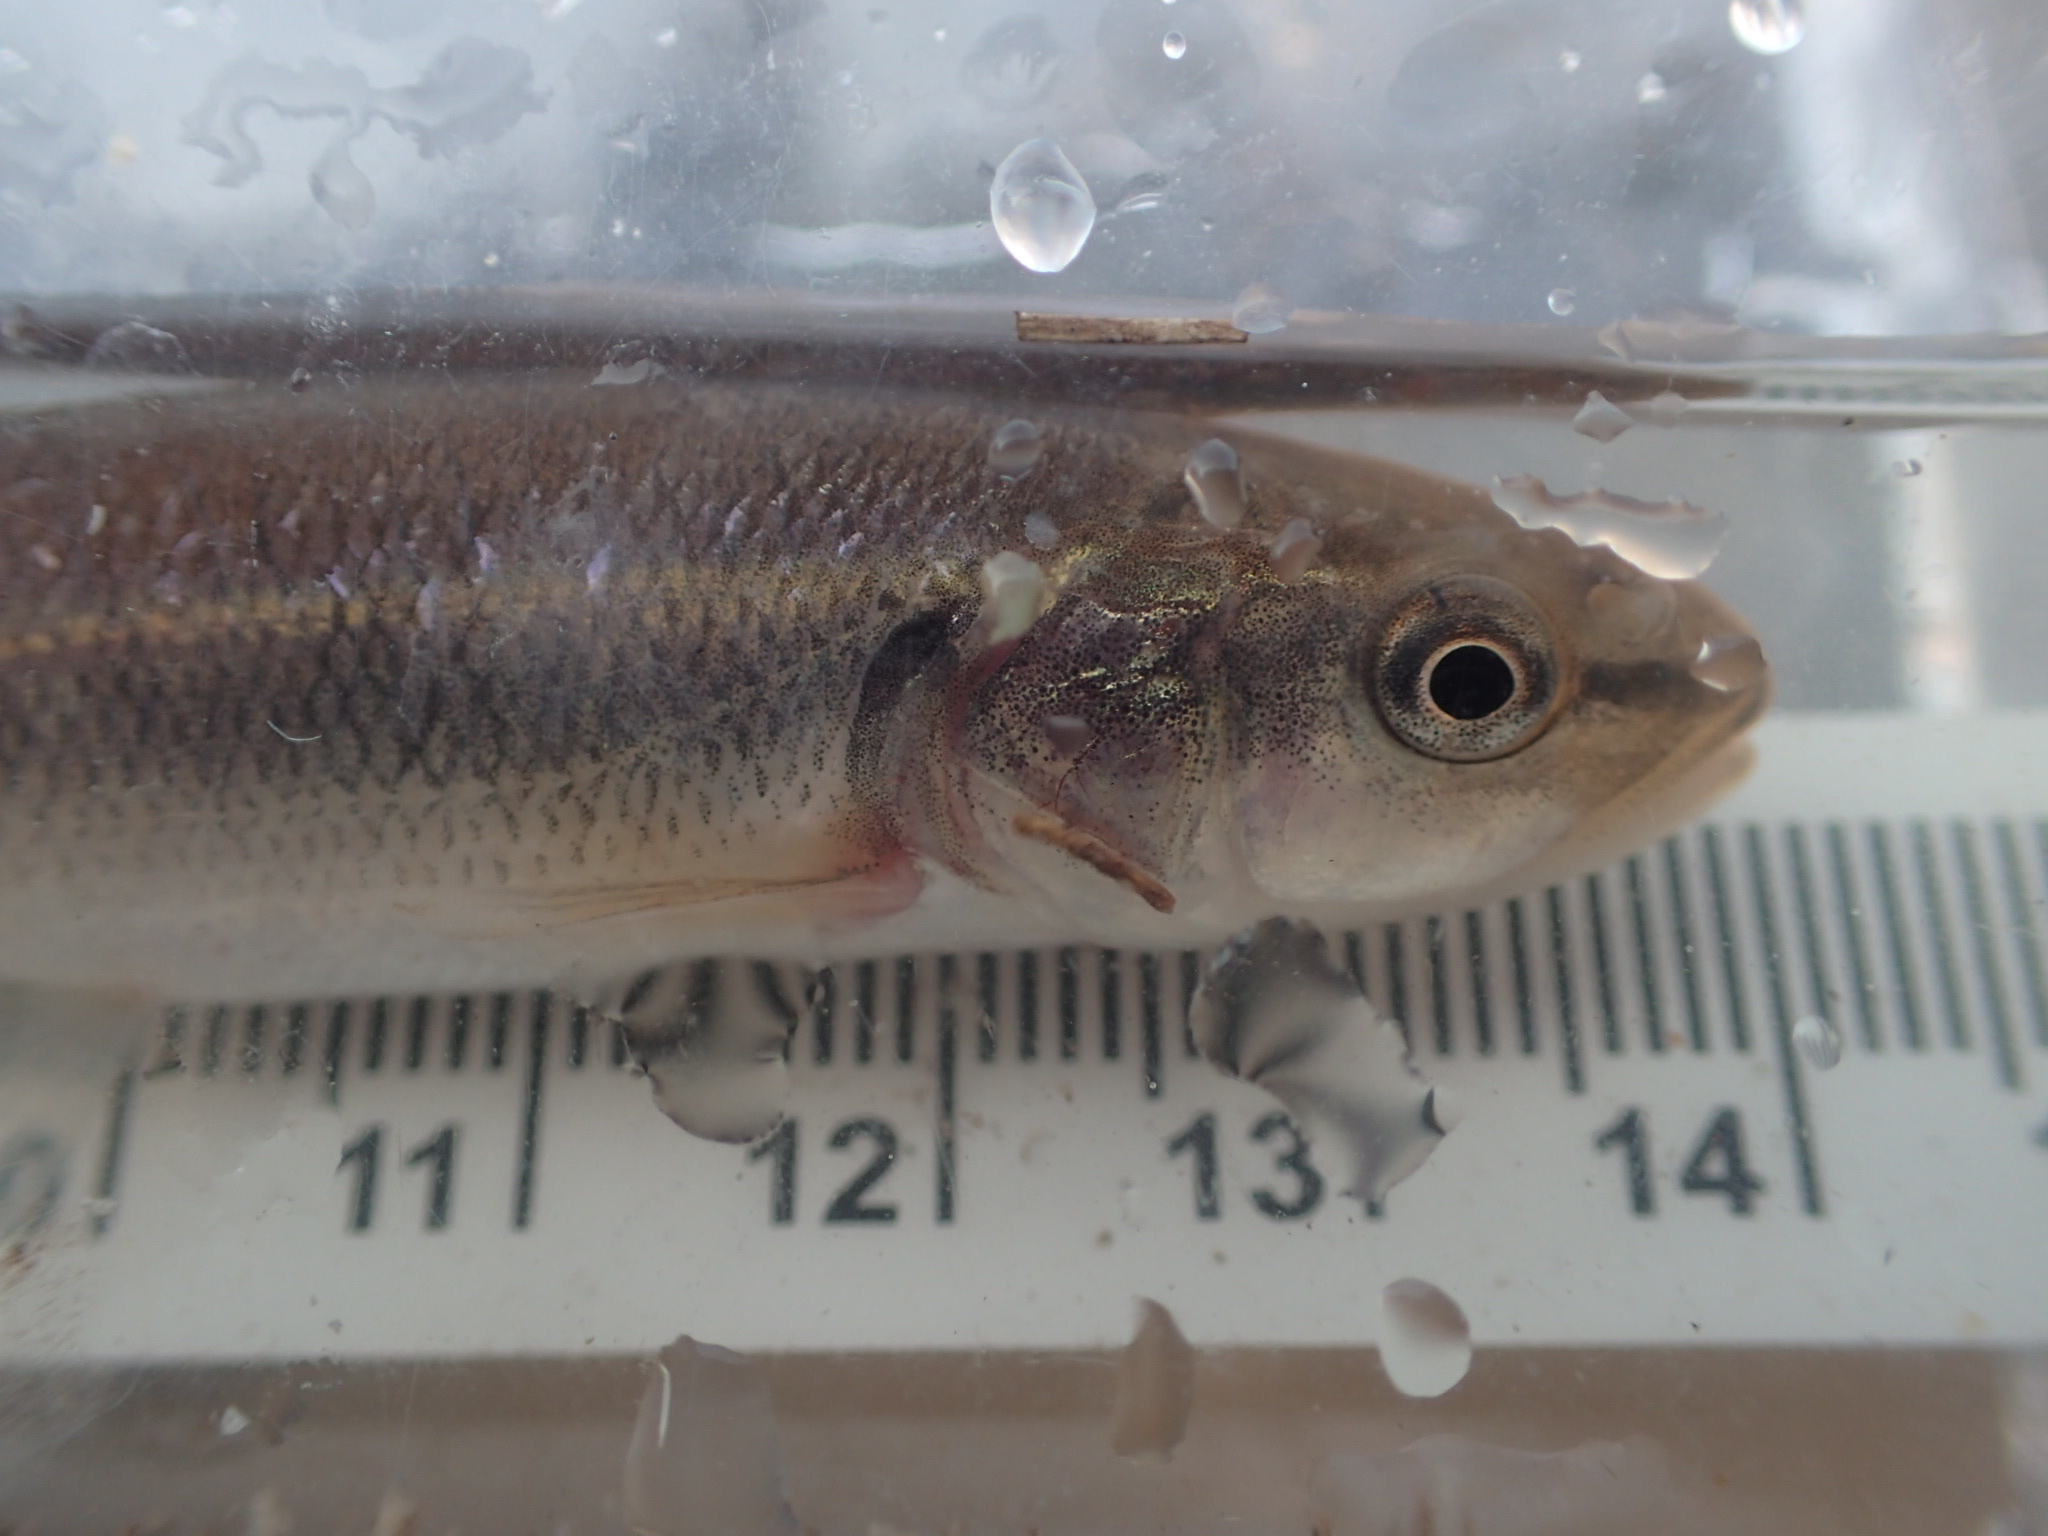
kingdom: Animalia
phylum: Chordata
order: Cypriniformes
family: Cyprinidae
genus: Semotilus
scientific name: Semotilus atromaculatus
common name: Creek chub
